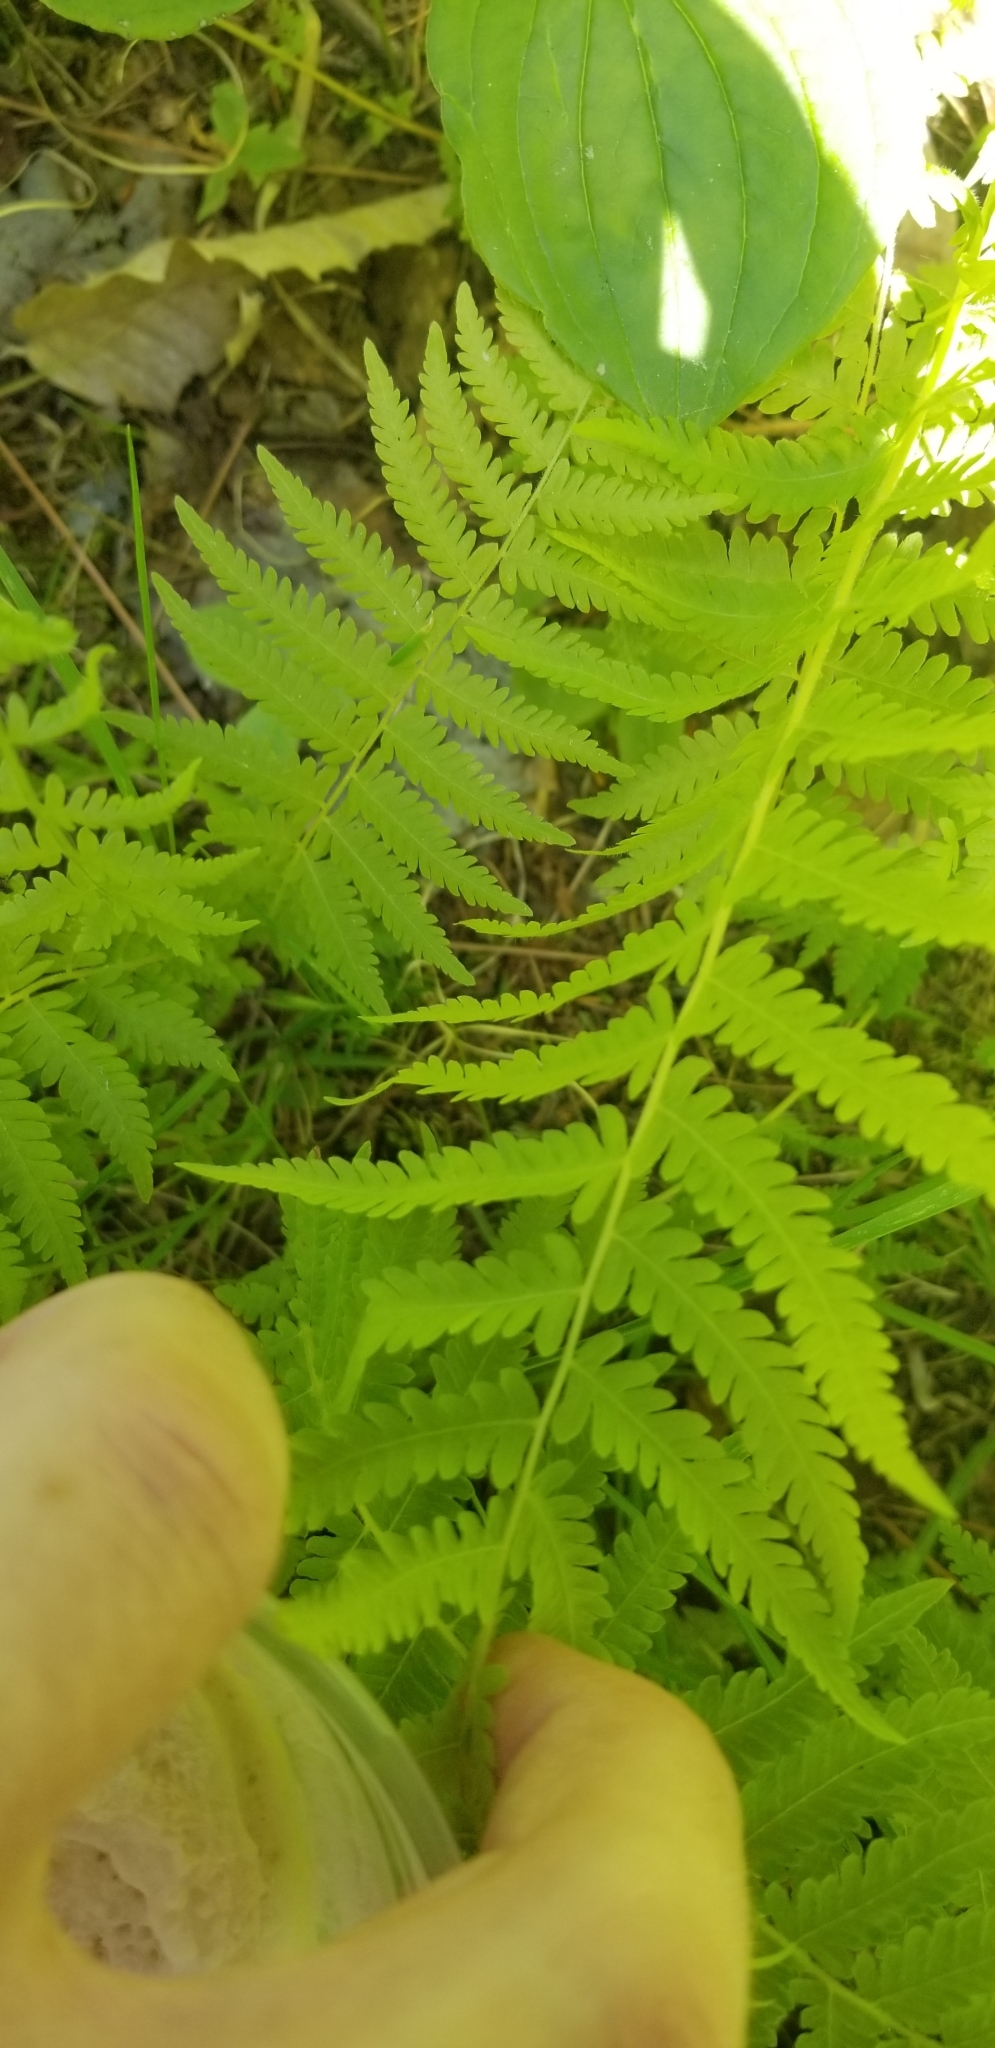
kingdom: Plantae
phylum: Tracheophyta
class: Polypodiopsida
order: Polypodiales
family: Thelypteridaceae
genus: Amauropelta
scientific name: Amauropelta noveboracensis
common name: New york fern
